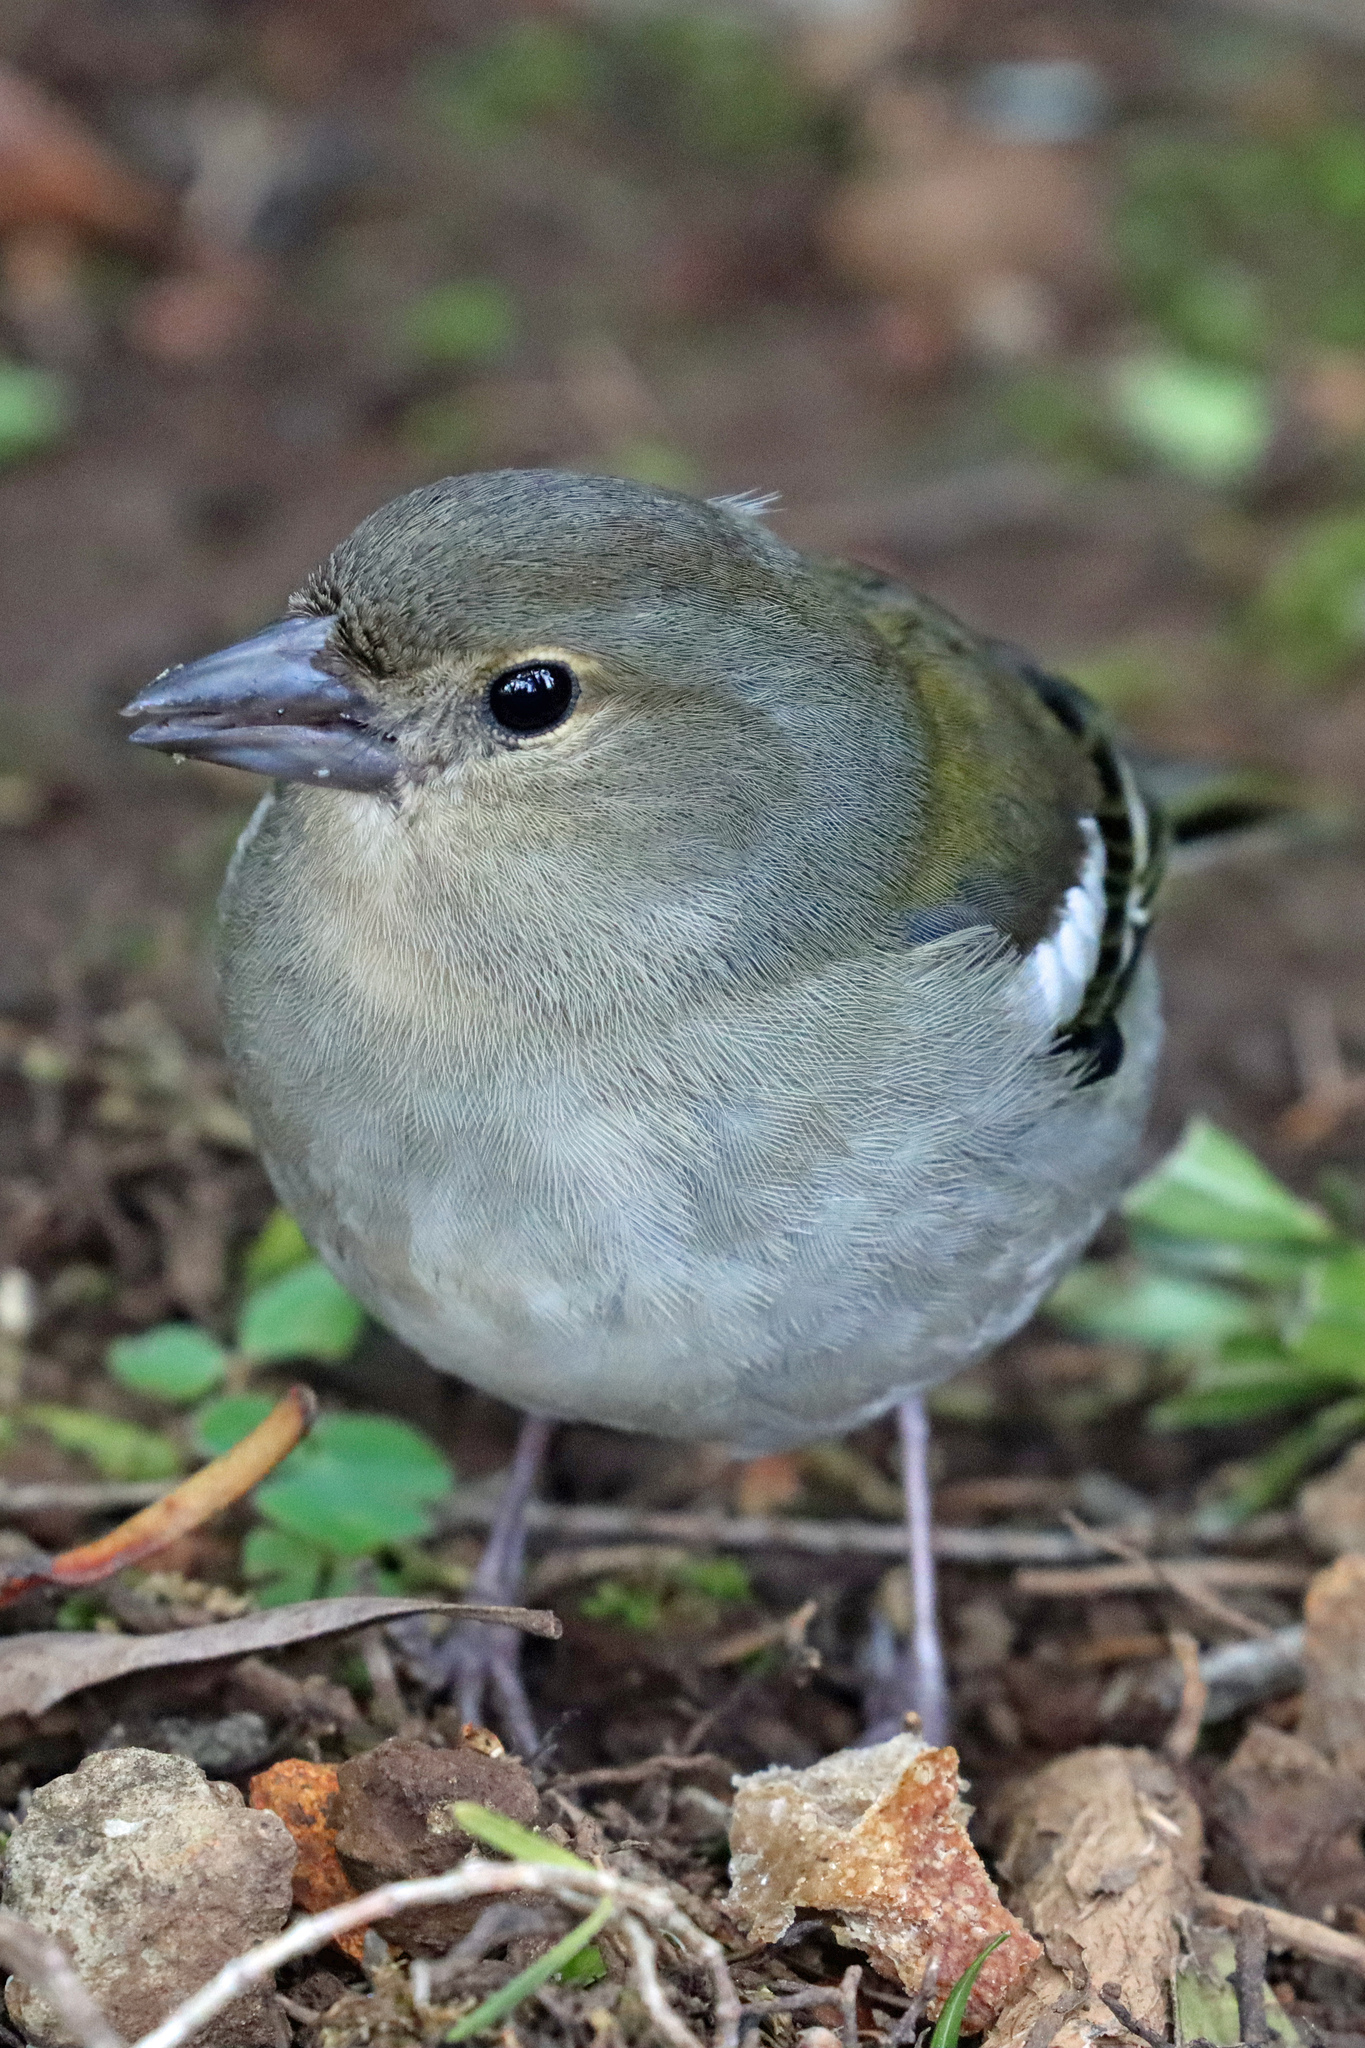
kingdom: Animalia
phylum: Chordata
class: Aves
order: Passeriformes
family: Fringillidae
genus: Fringilla
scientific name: Fringilla maderensis
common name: Madeira chaffinch
